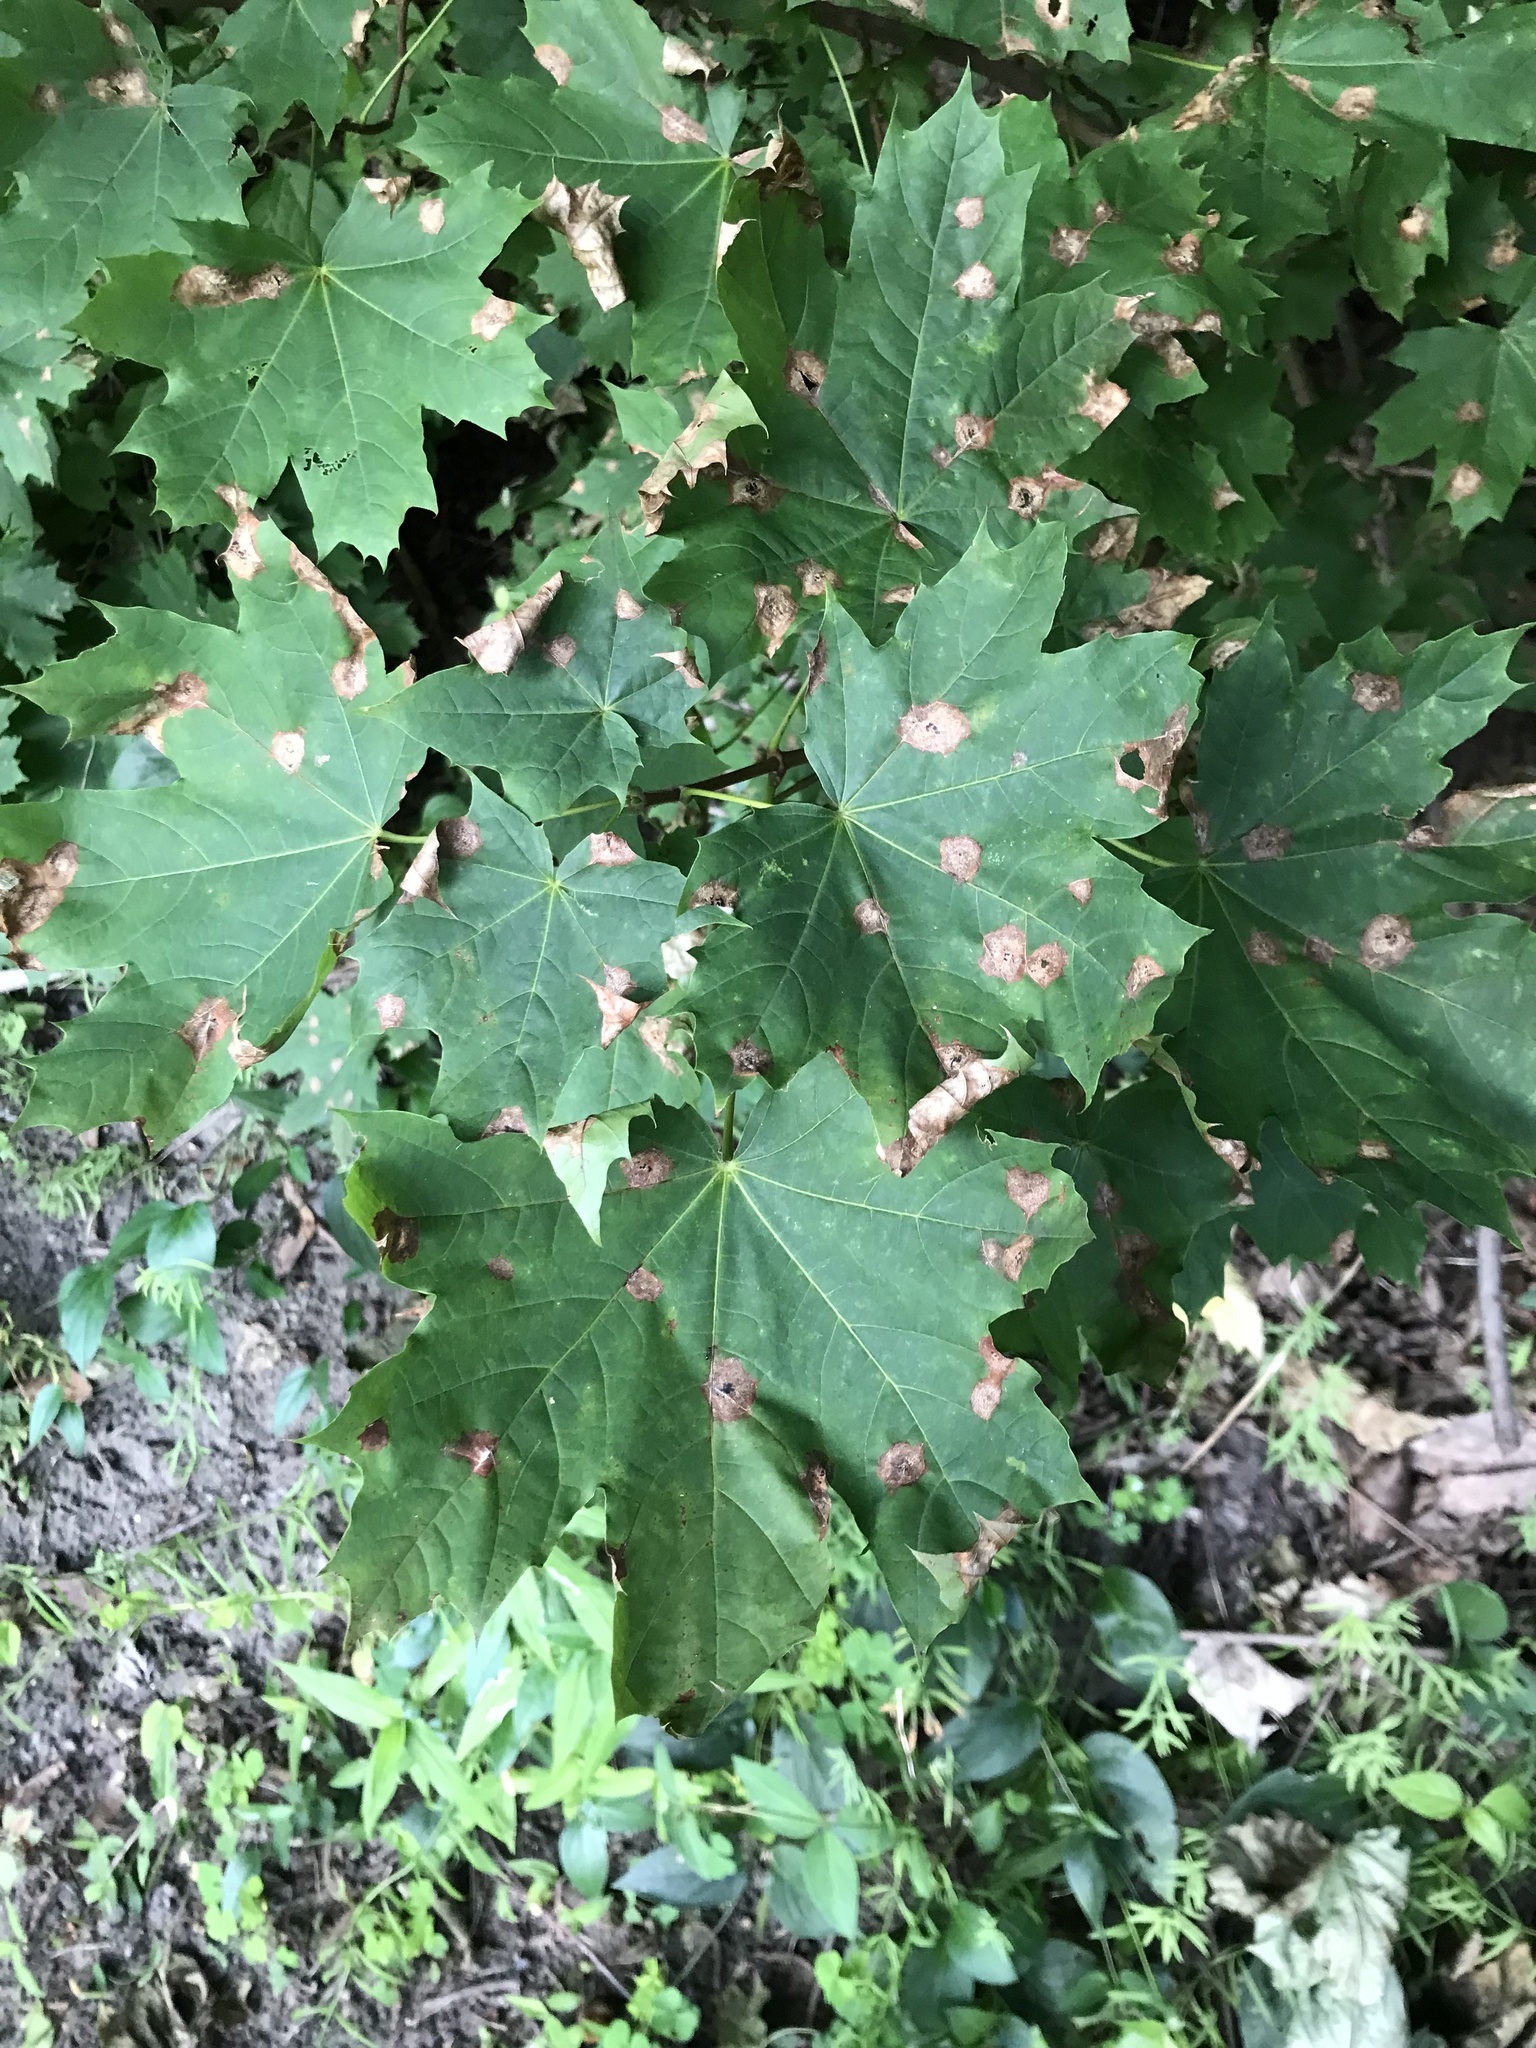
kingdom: Plantae
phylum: Tracheophyta
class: Magnoliopsida
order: Sapindales
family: Sapindaceae
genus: Acer
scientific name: Acer platanoides
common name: Norway maple
